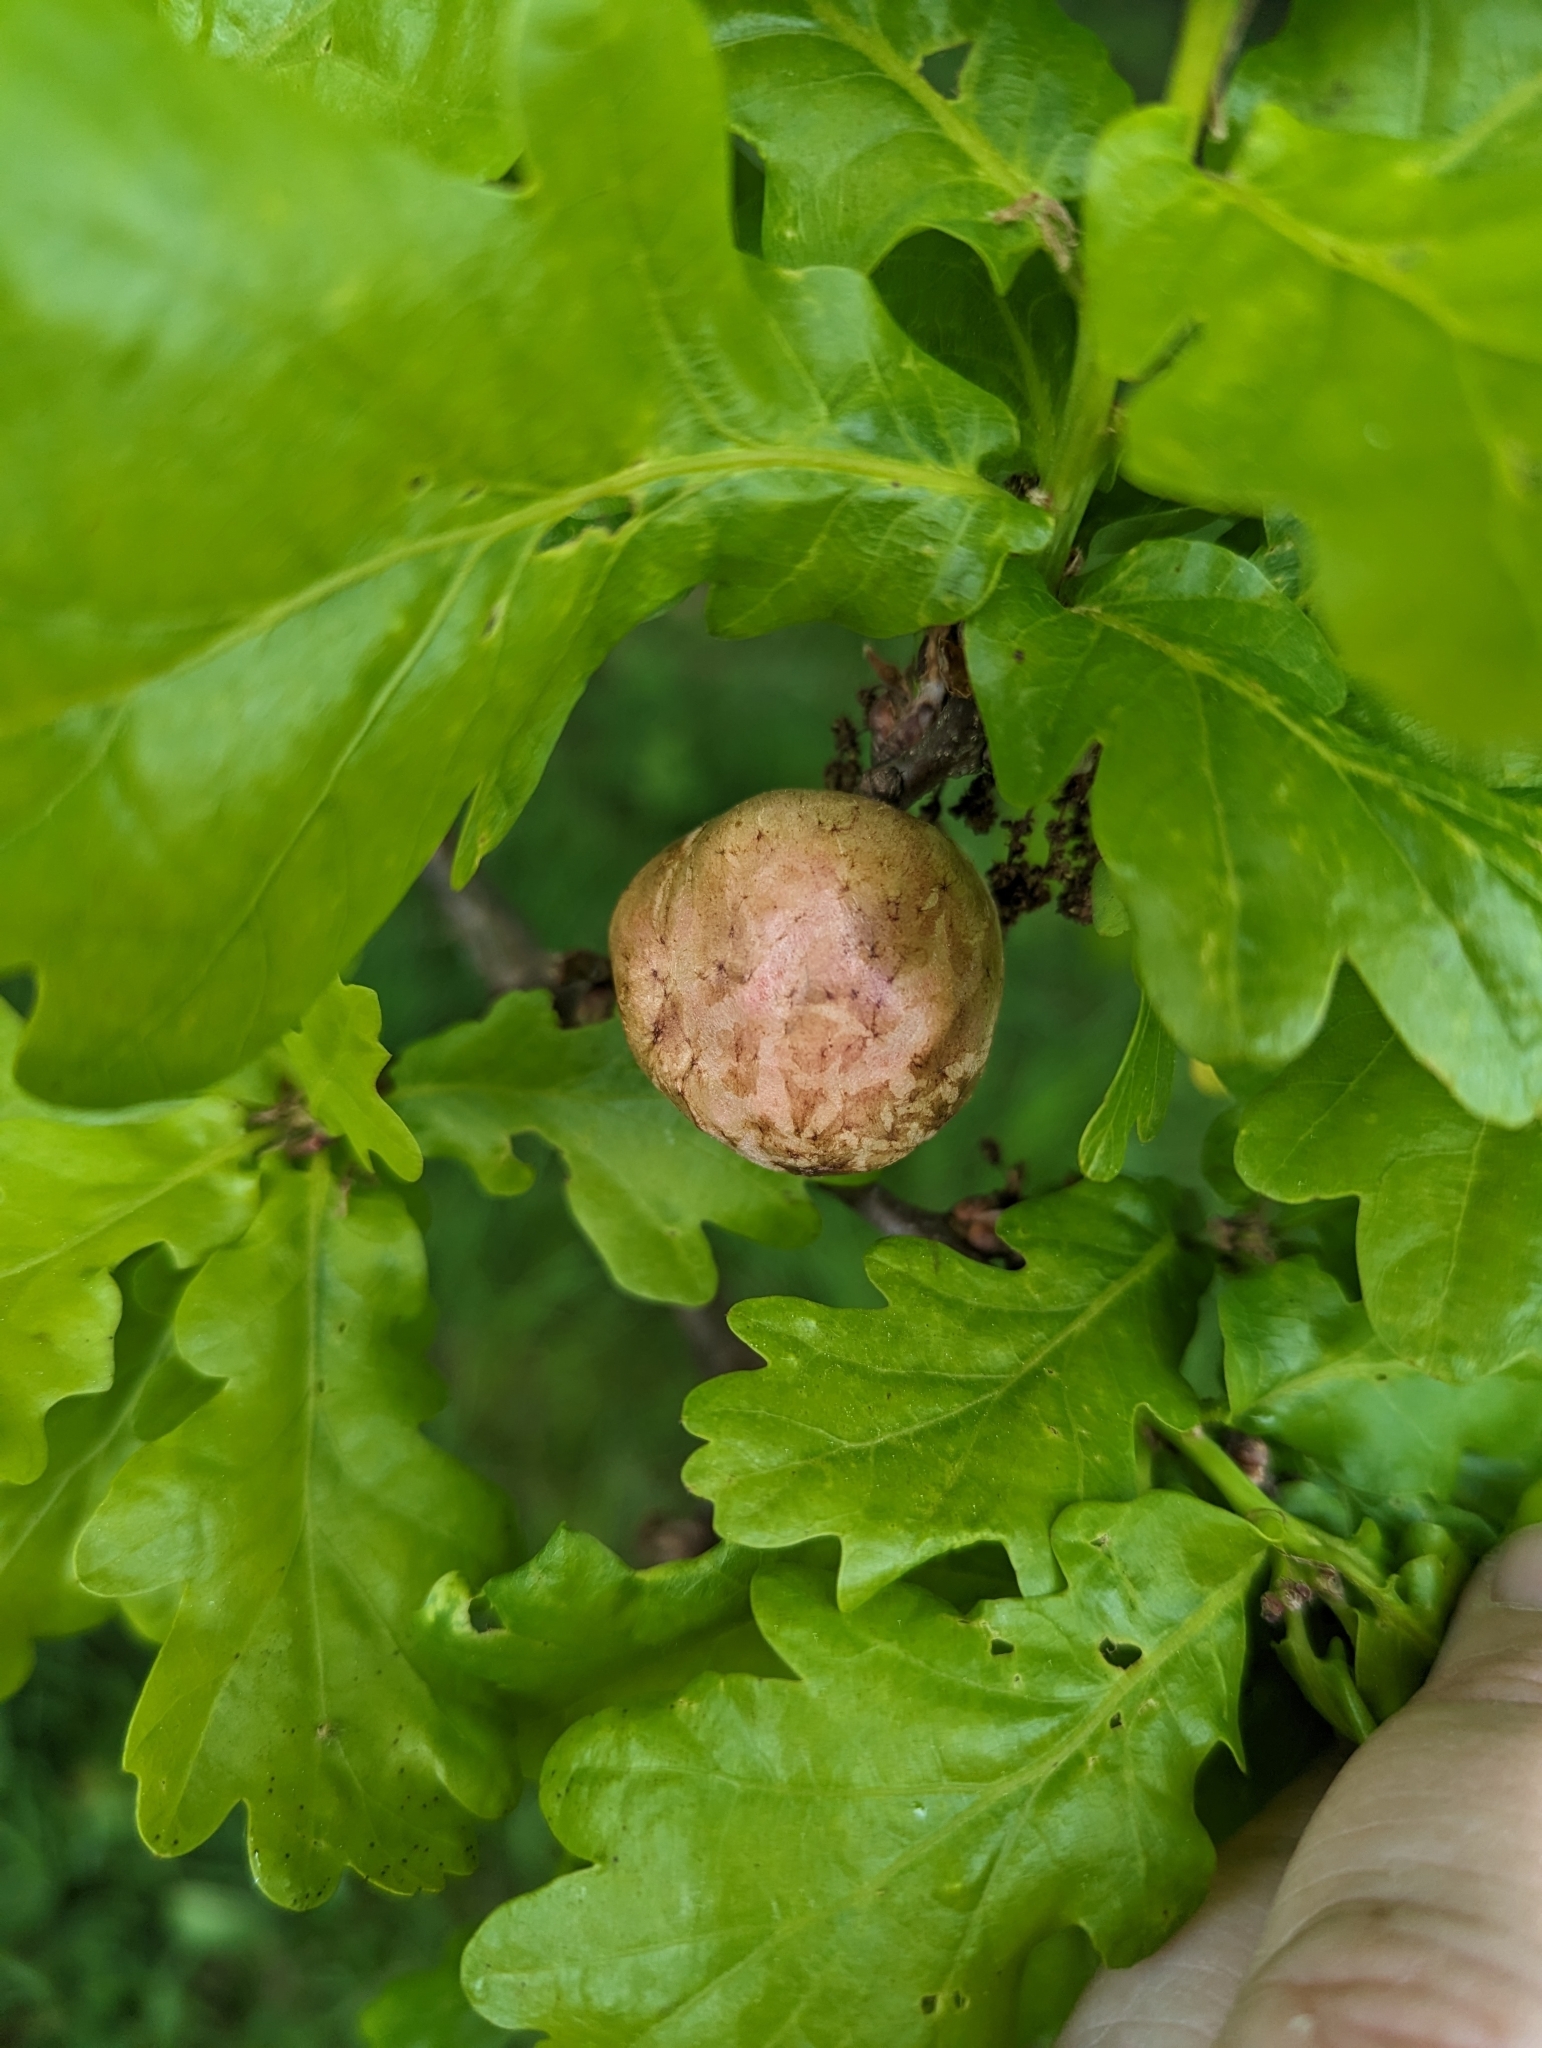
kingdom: Animalia
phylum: Arthropoda
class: Insecta
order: Hymenoptera
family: Cynipidae
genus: Biorhiza
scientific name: Biorhiza pallida
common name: Oak apple
